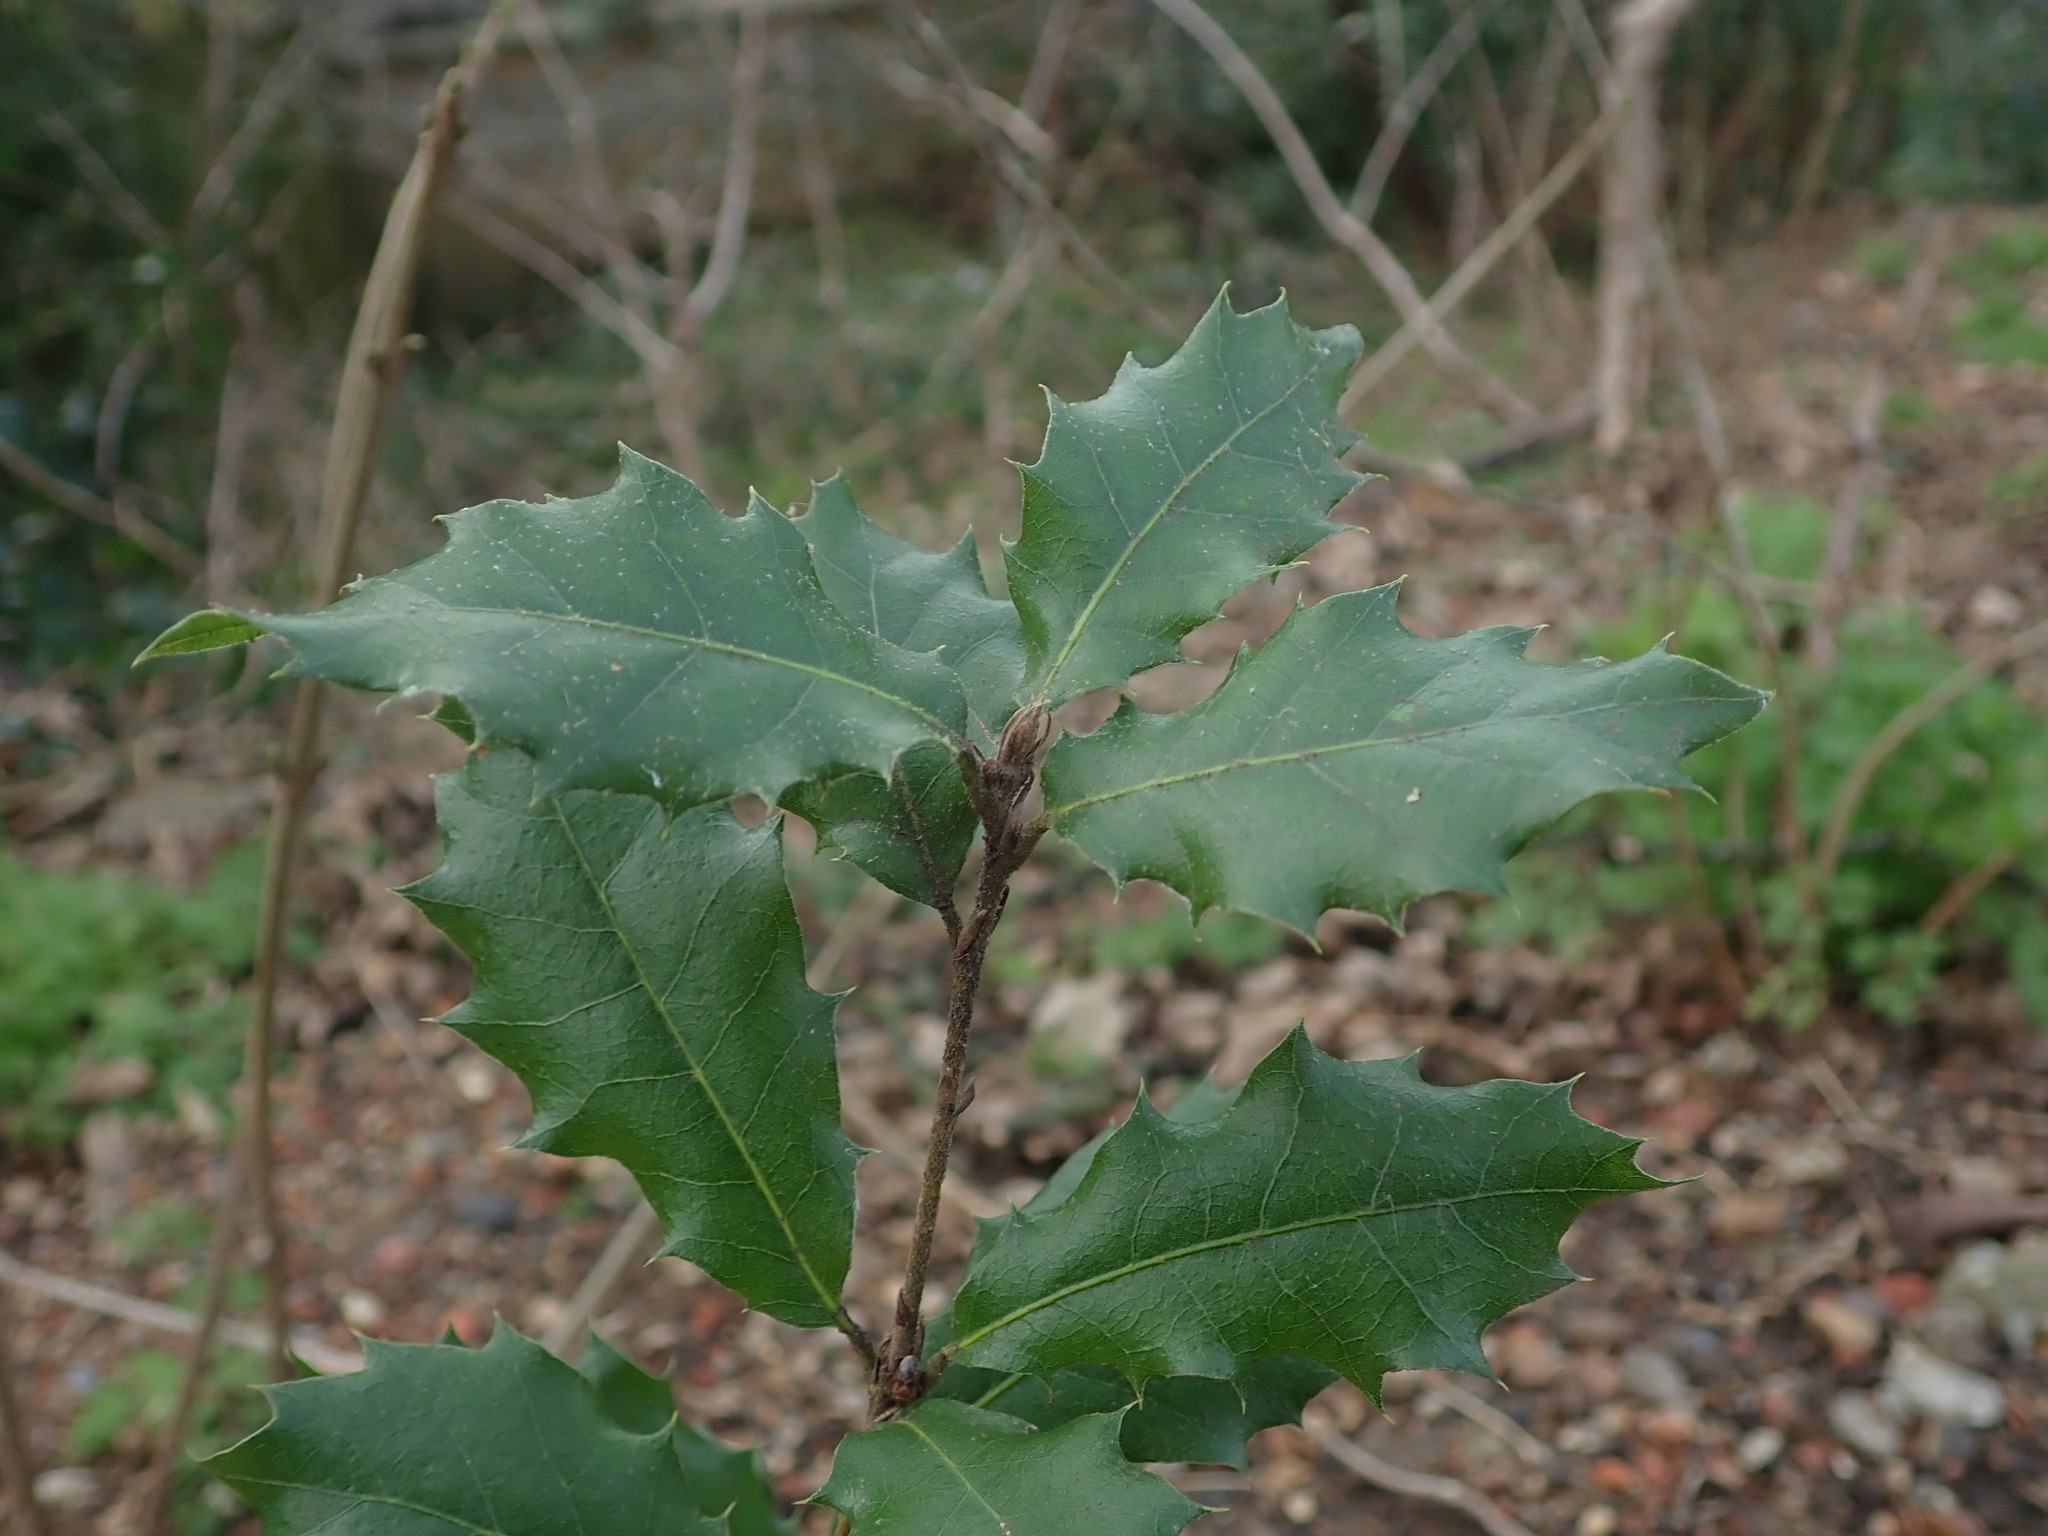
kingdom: Plantae
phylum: Tracheophyta
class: Magnoliopsida
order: Fagales
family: Fagaceae
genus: Quercus
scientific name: Quercus ilex
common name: Evergreen oak
